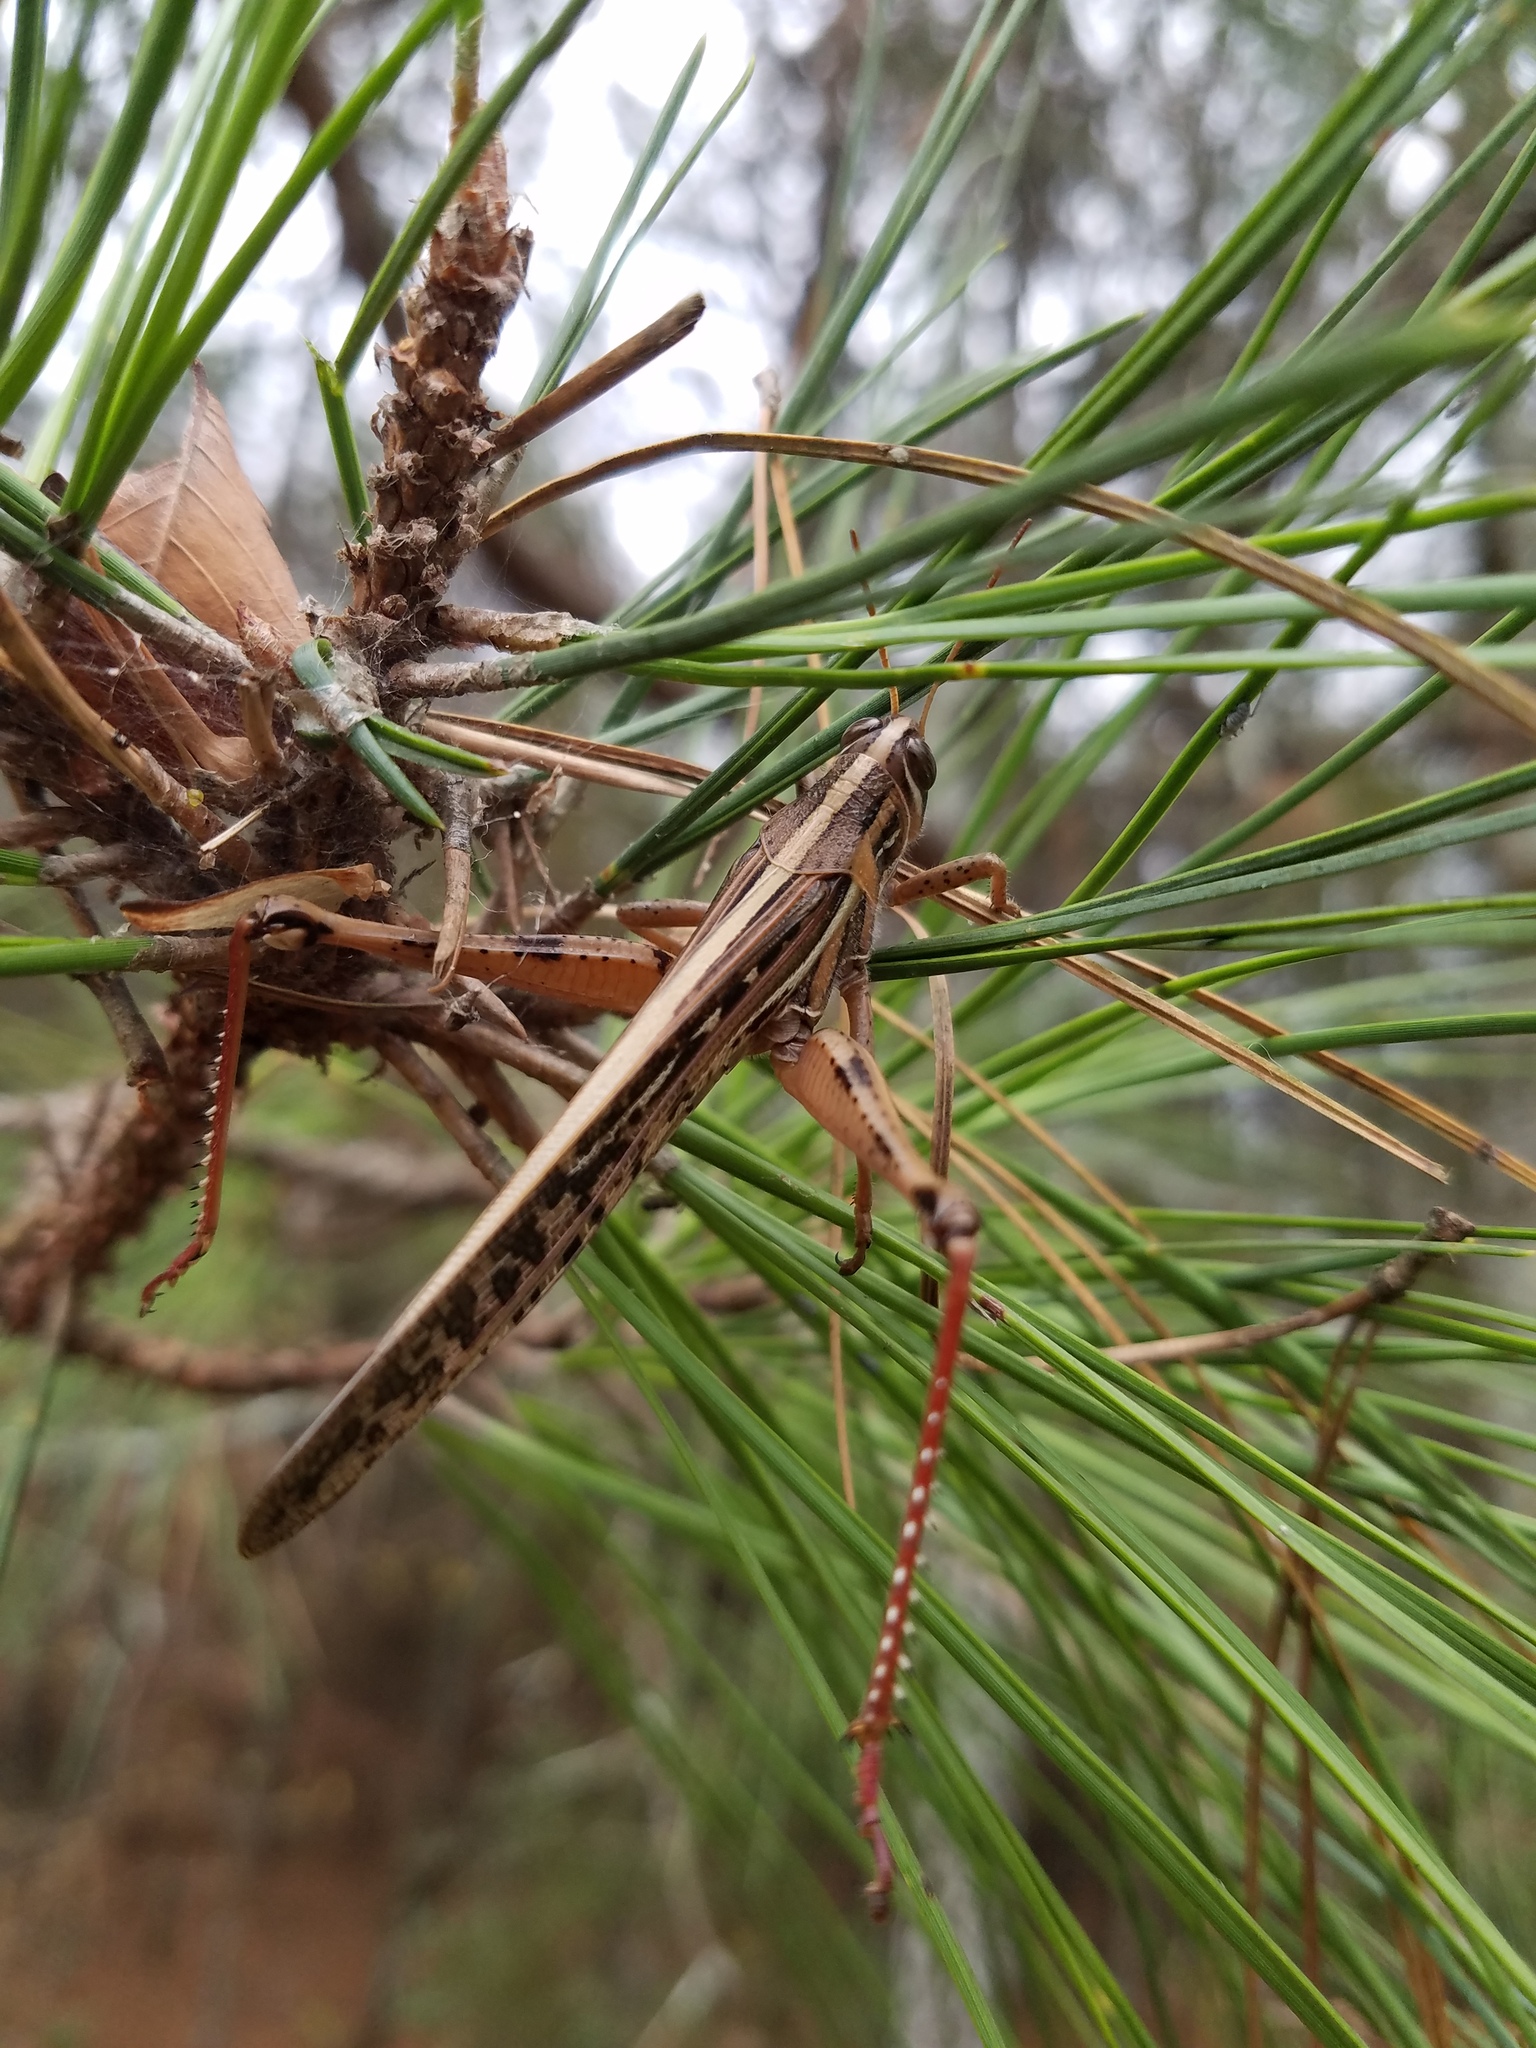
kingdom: Animalia
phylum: Arthropoda
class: Insecta
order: Orthoptera
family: Acrididae
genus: Schistocerca
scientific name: Schistocerca americana
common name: American bird locust
